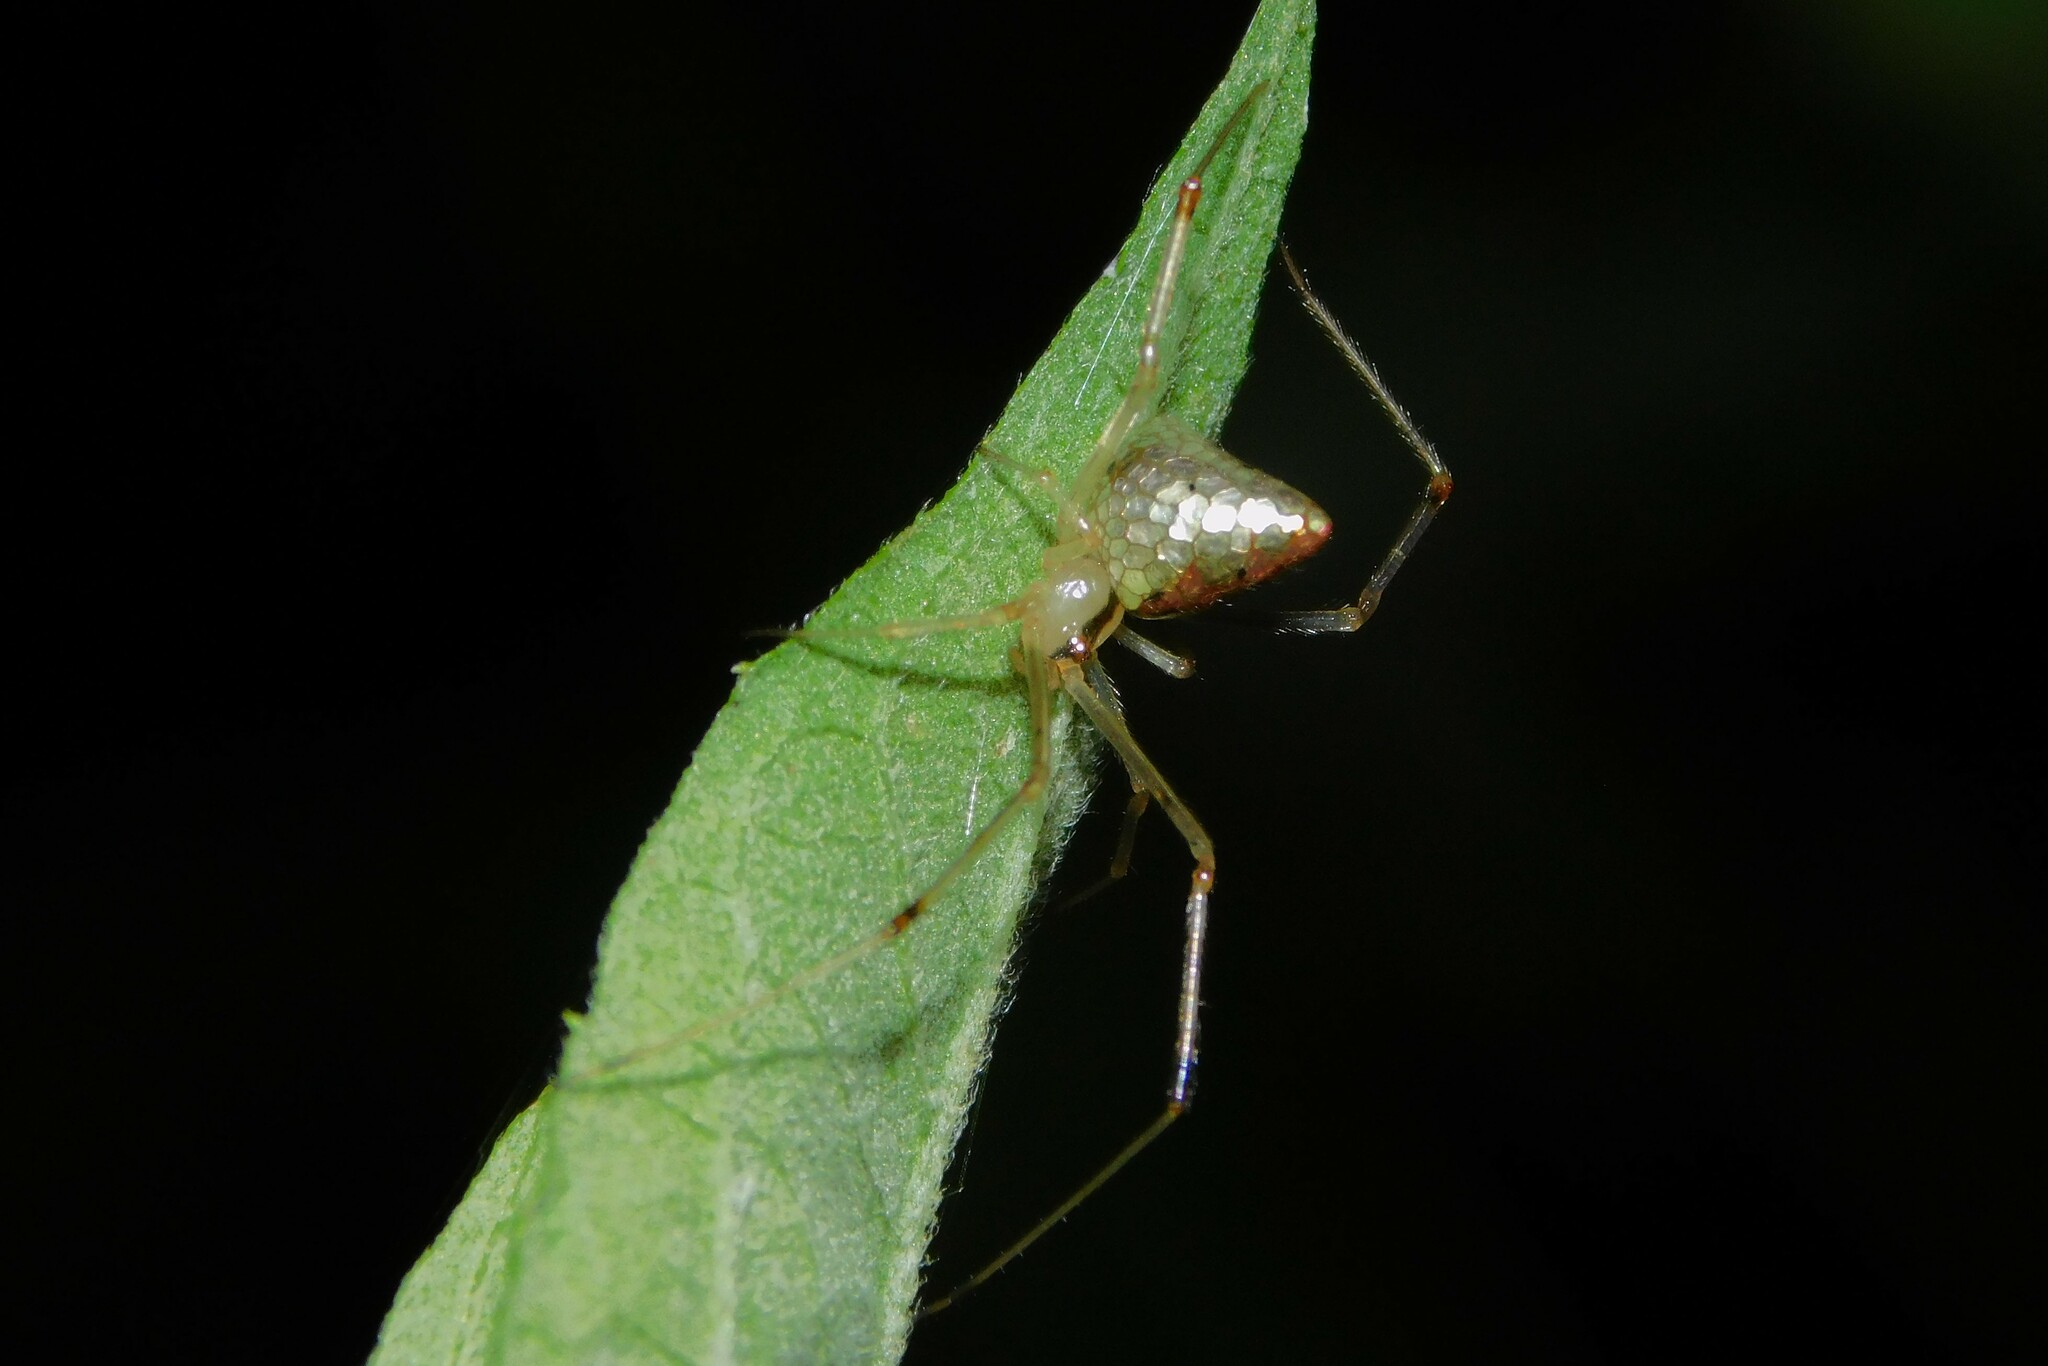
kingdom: Animalia
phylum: Arthropoda
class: Arachnida
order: Araneae
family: Theridiidae
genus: Thwaitesia
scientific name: Thwaitesia argenteoguttata
